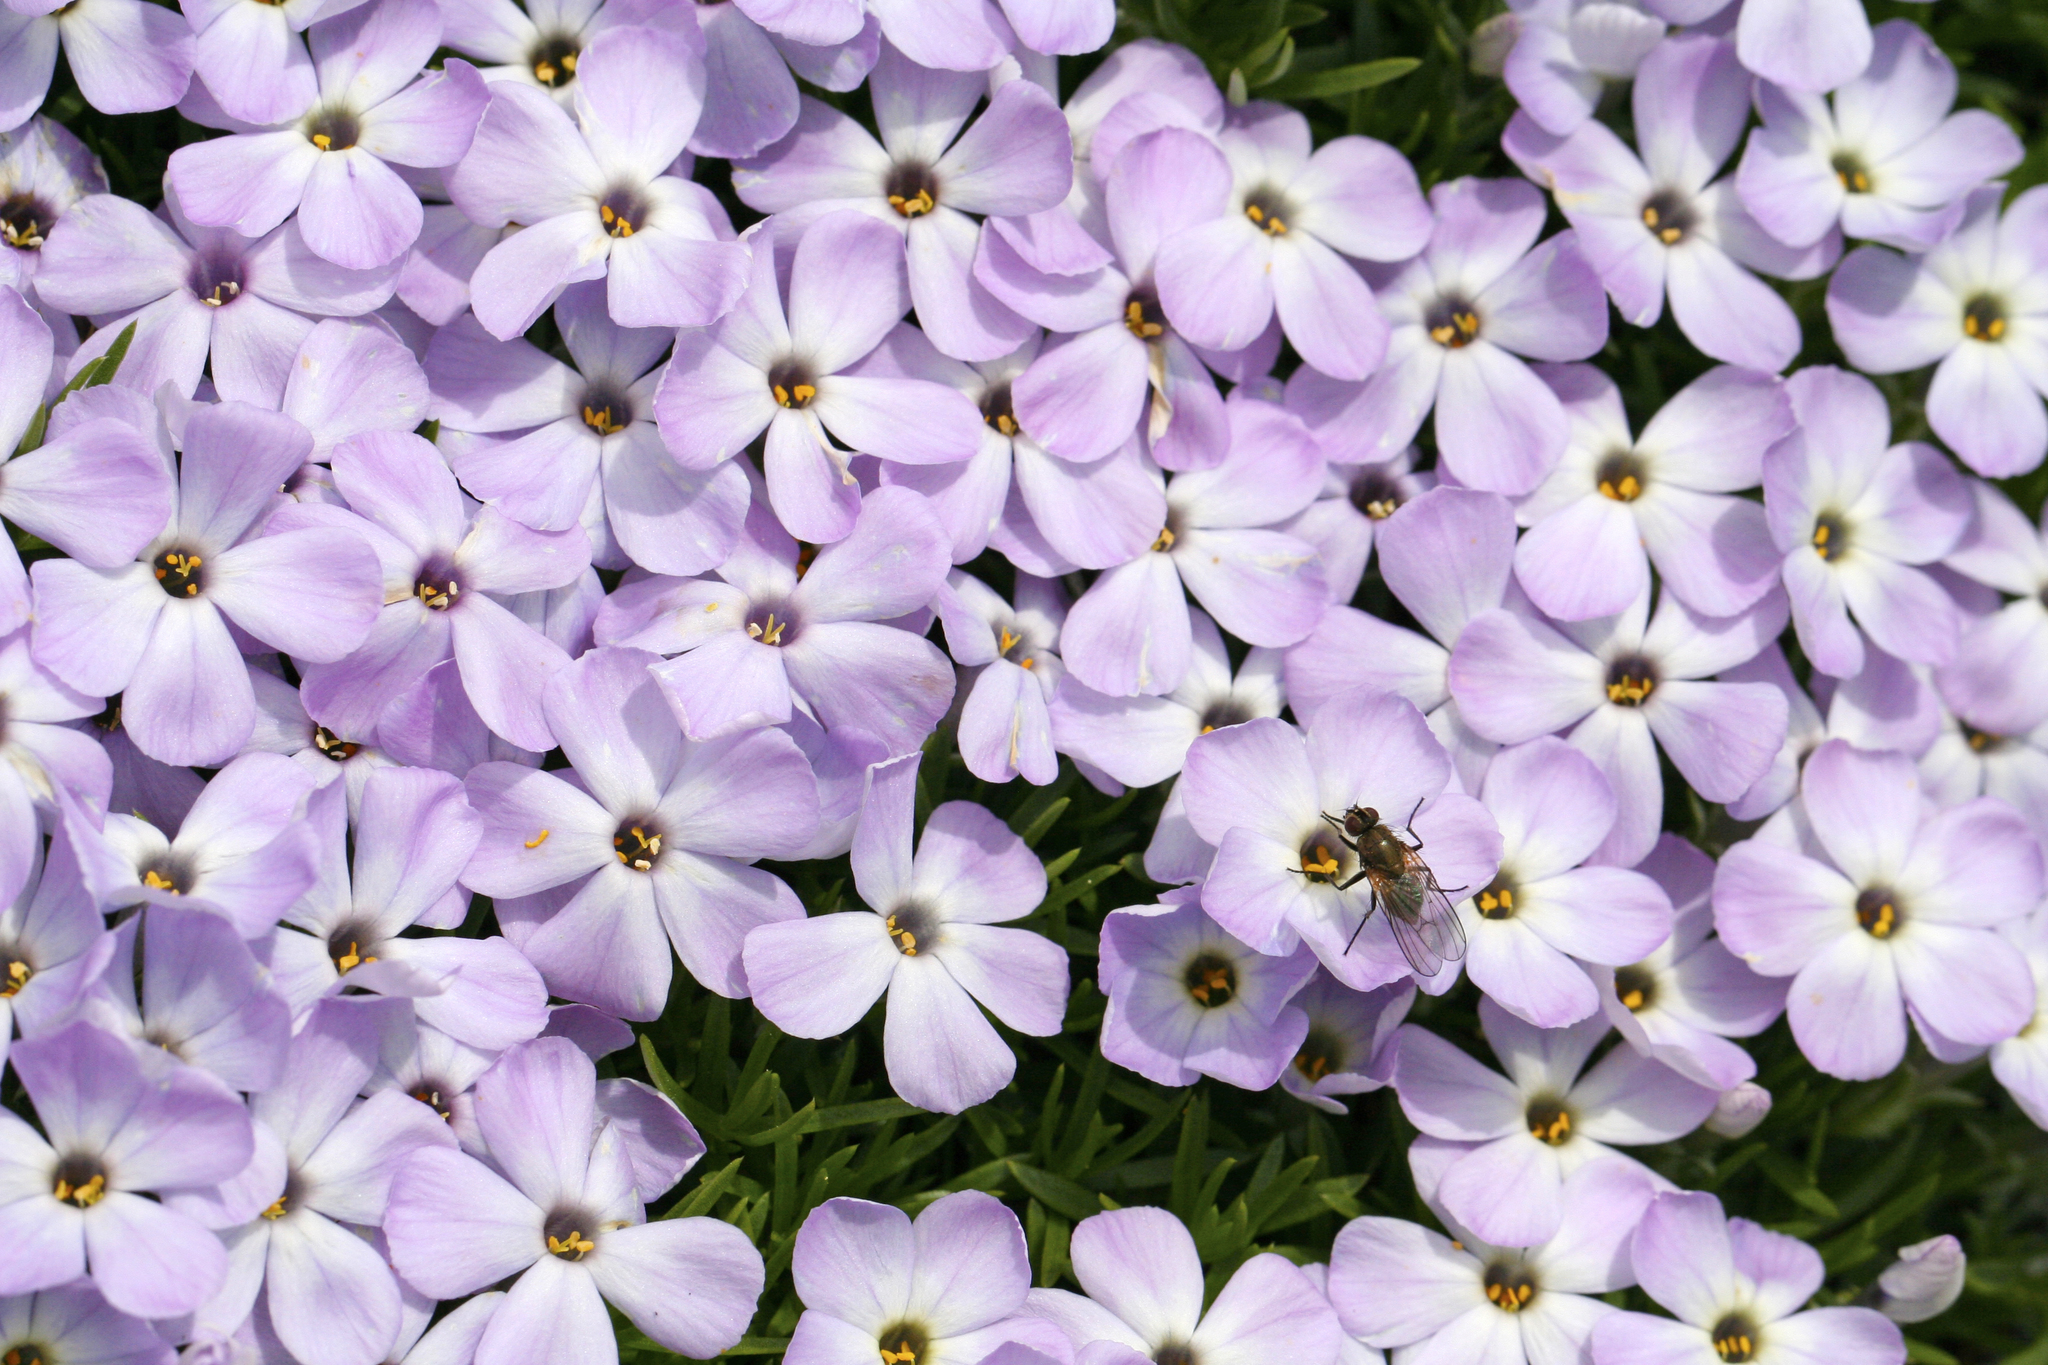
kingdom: Plantae
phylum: Tracheophyta
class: Magnoliopsida
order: Ericales
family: Polemoniaceae
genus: Phlox
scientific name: Phlox diffusa
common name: Mat phlox
